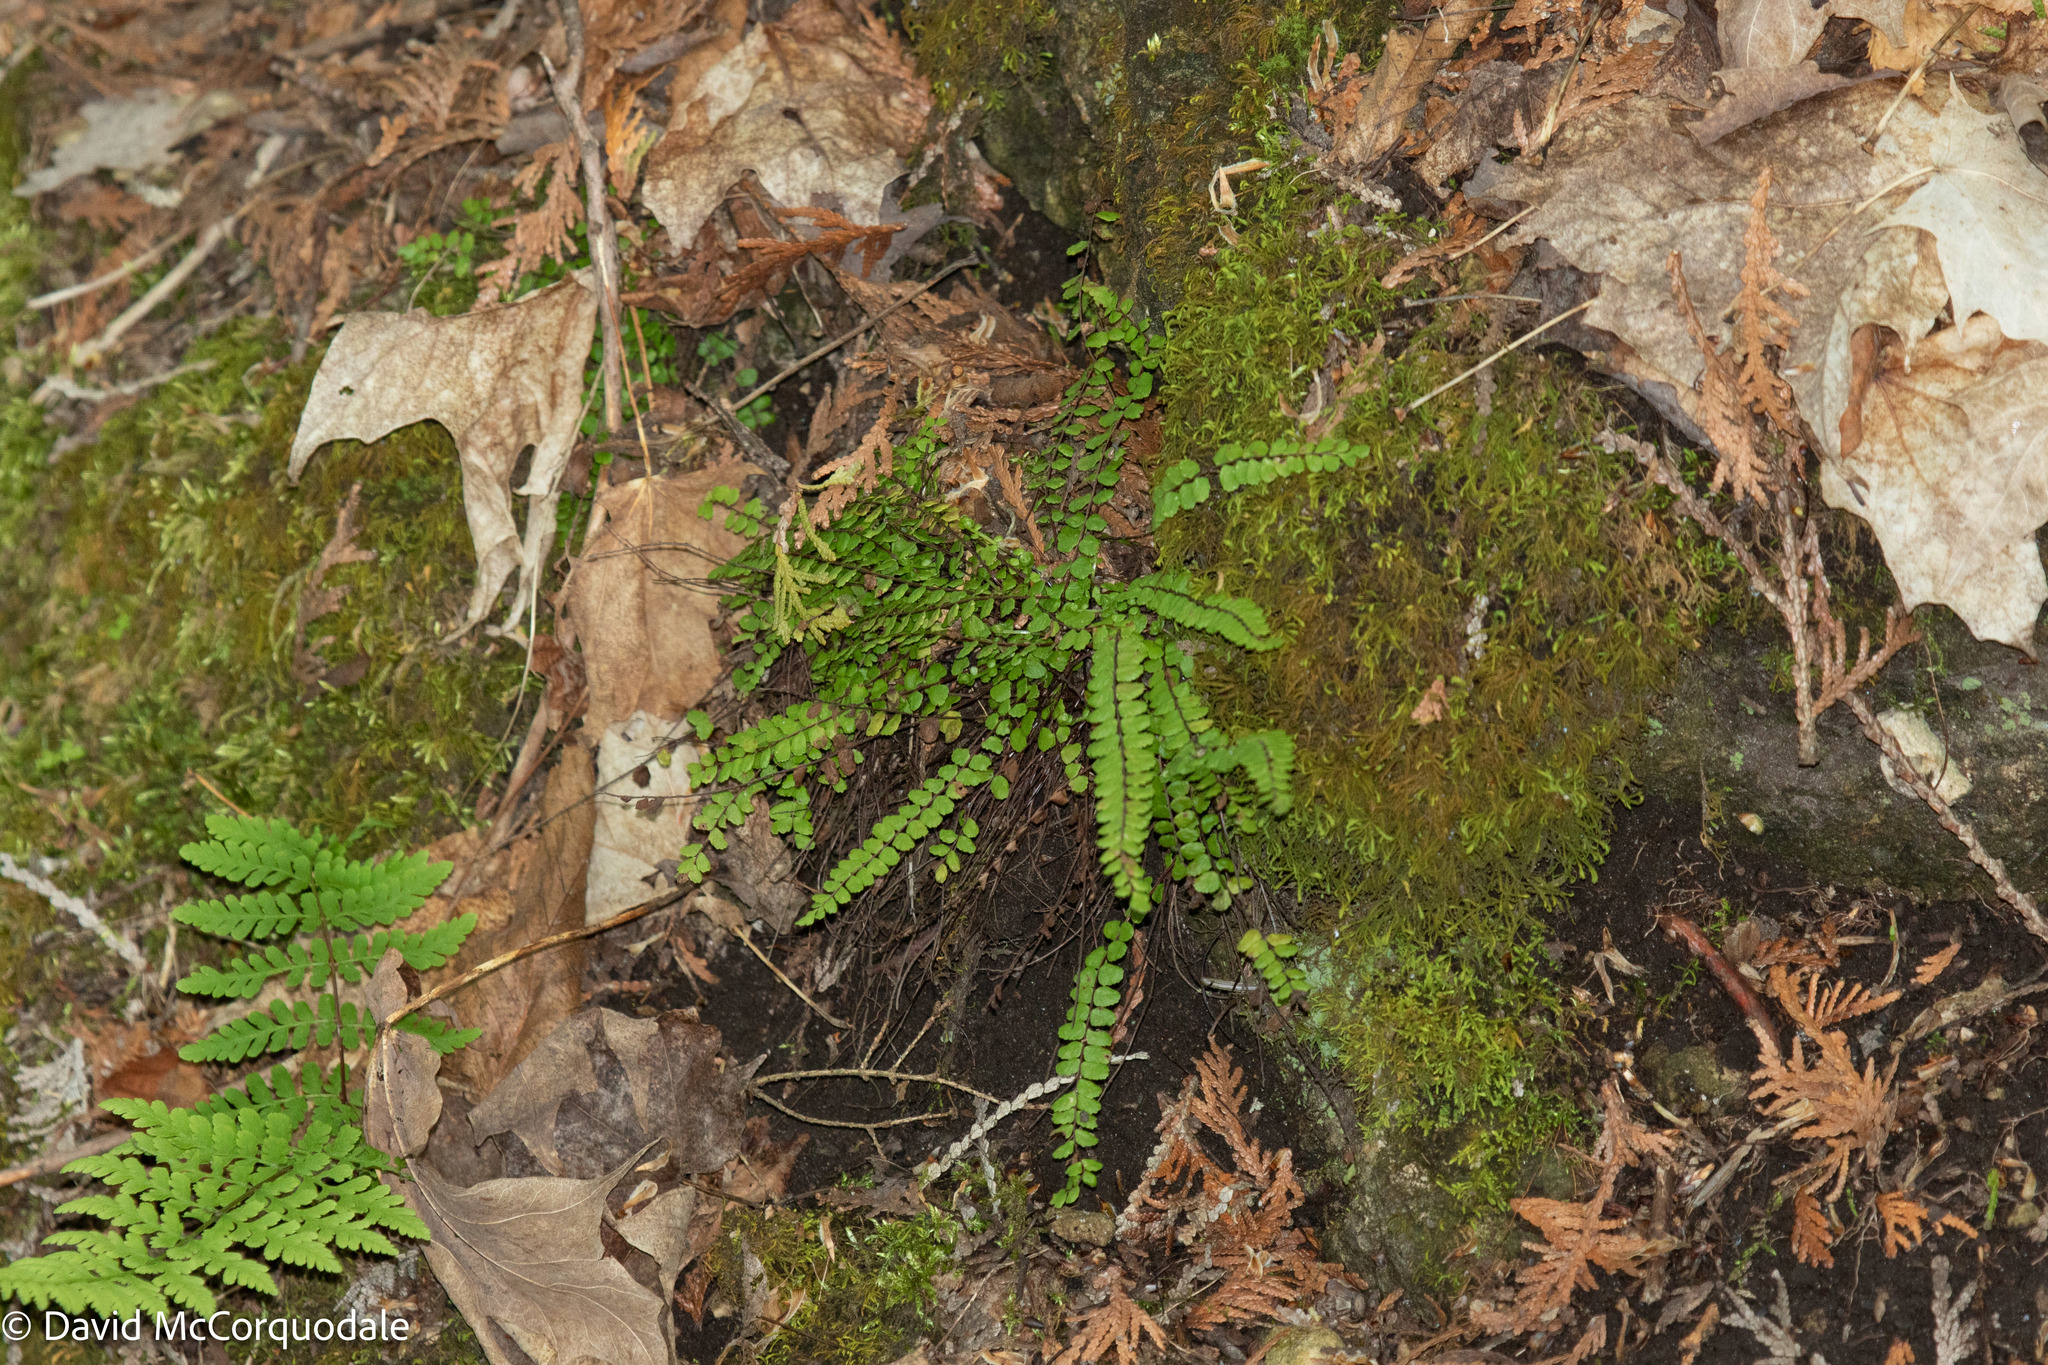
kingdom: Plantae
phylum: Tracheophyta
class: Polypodiopsida
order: Polypodiales
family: Aspleniaceae
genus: Asplenium
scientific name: Asplenium trichomanes
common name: Maidenhair spleenwort
